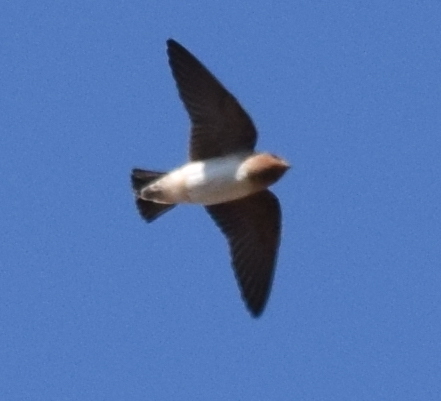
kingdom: Animalia
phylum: Chordata
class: Aves
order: Passeriformes
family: Hirundinidae
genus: Petrochelidon
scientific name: Petrochelidon pyrrhonota
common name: American cliff swallow
